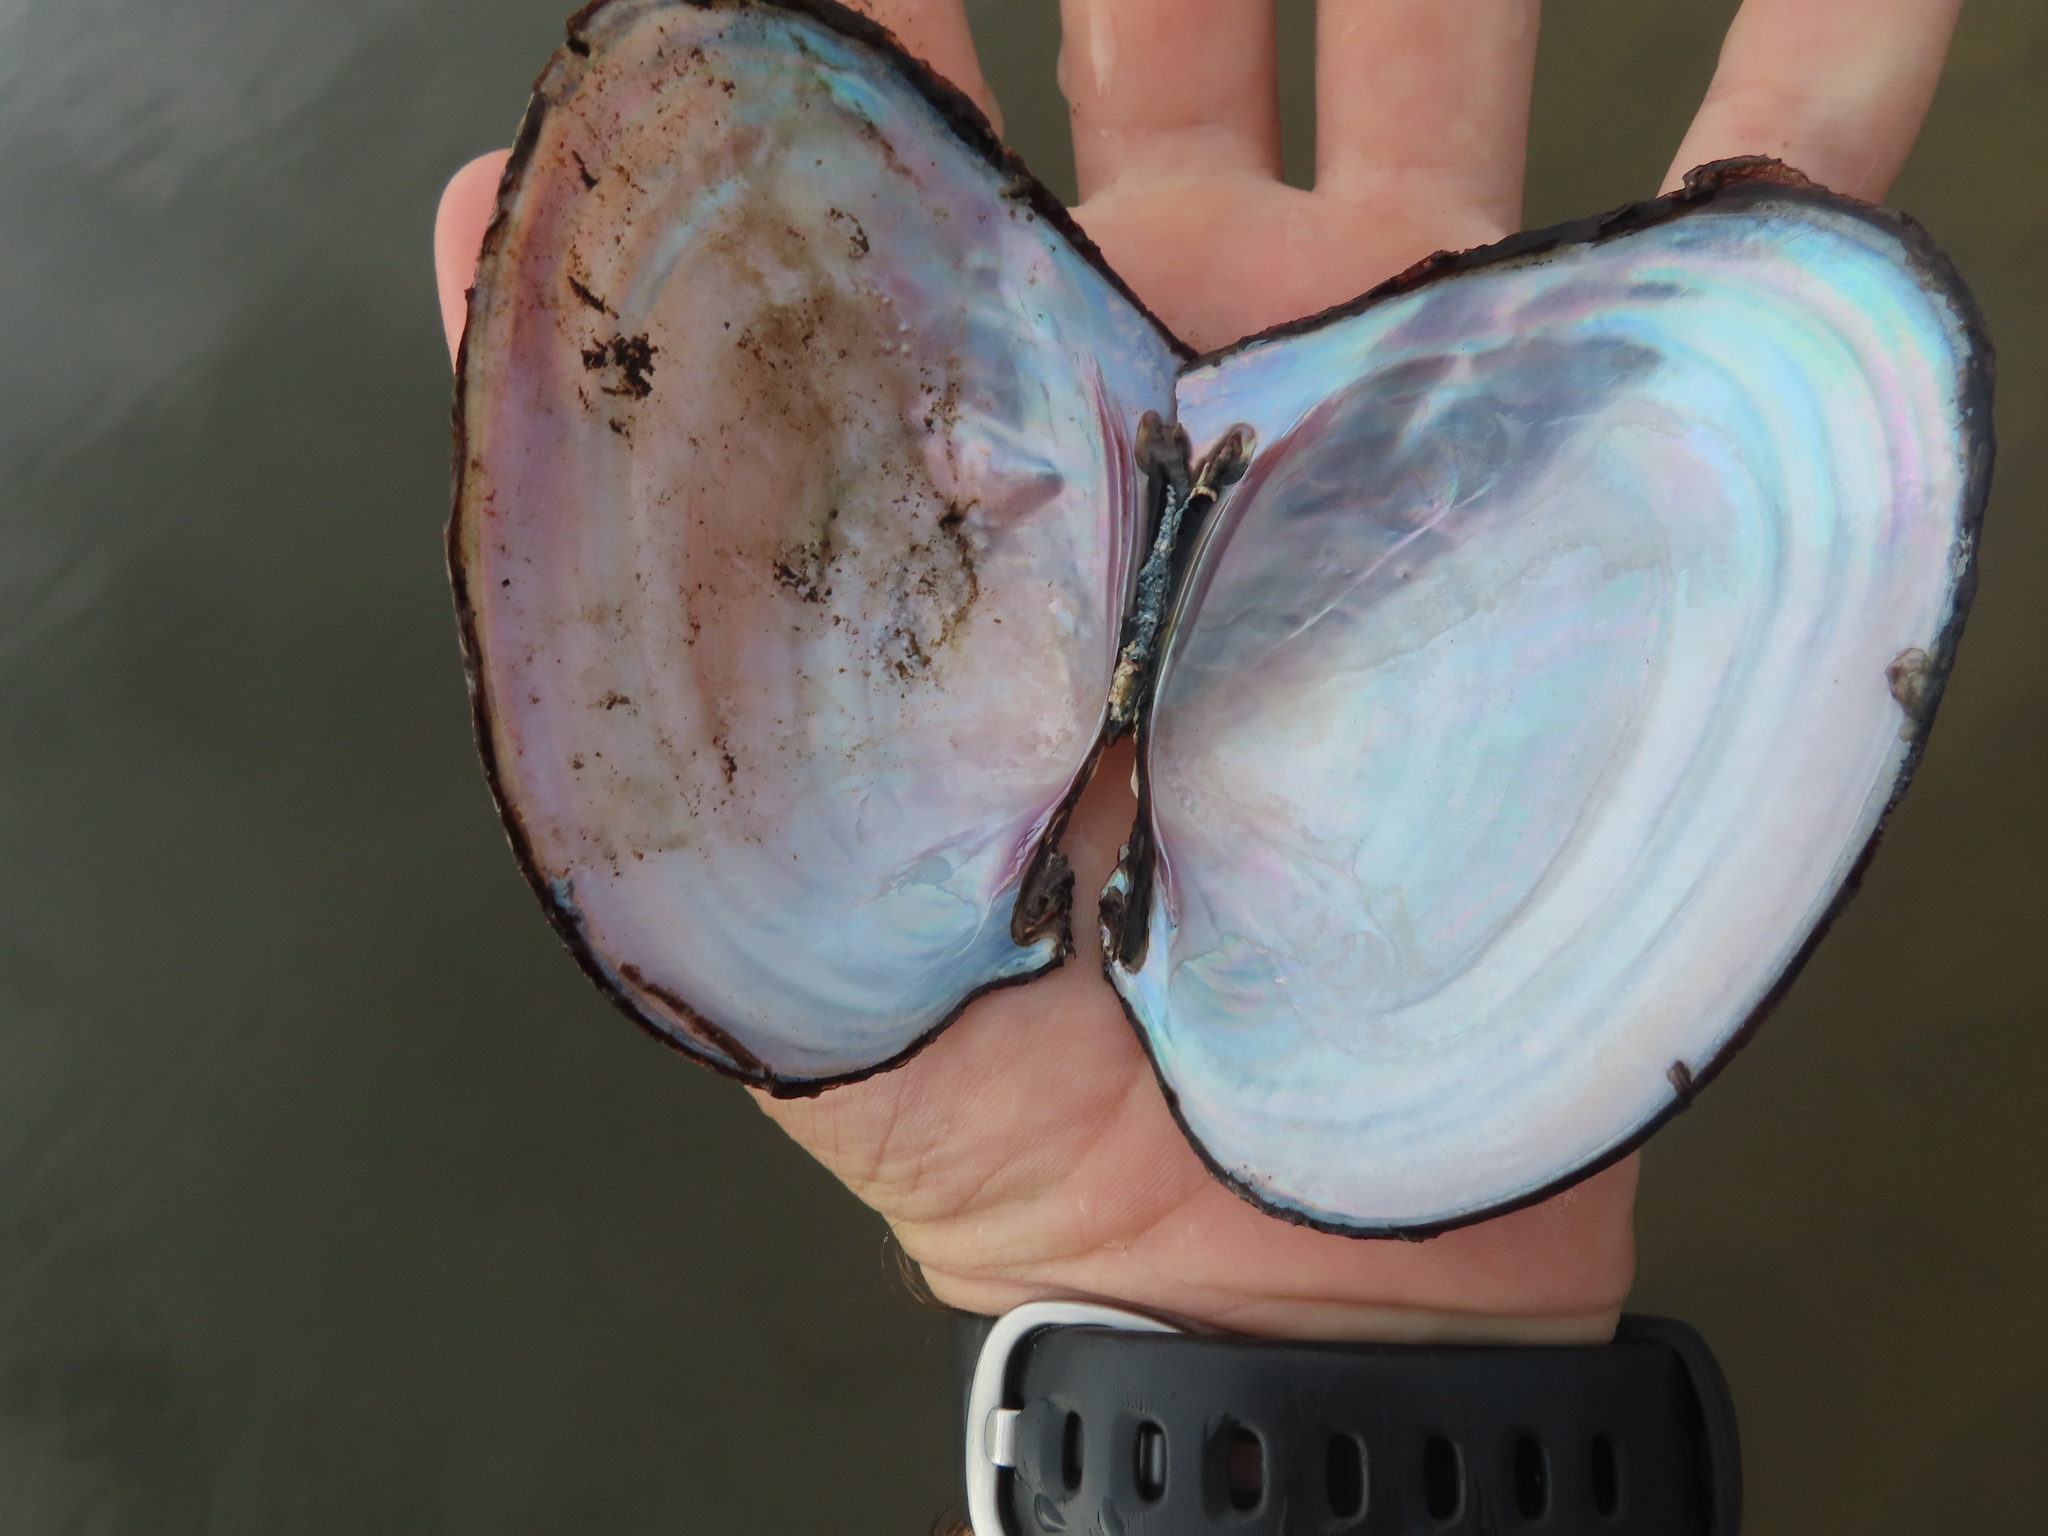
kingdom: Animalia
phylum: Mollusca
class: Bivalvia
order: Unionida
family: Unionidae
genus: Potamilus
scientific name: Potamilus ohiensis
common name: Pink papershell
